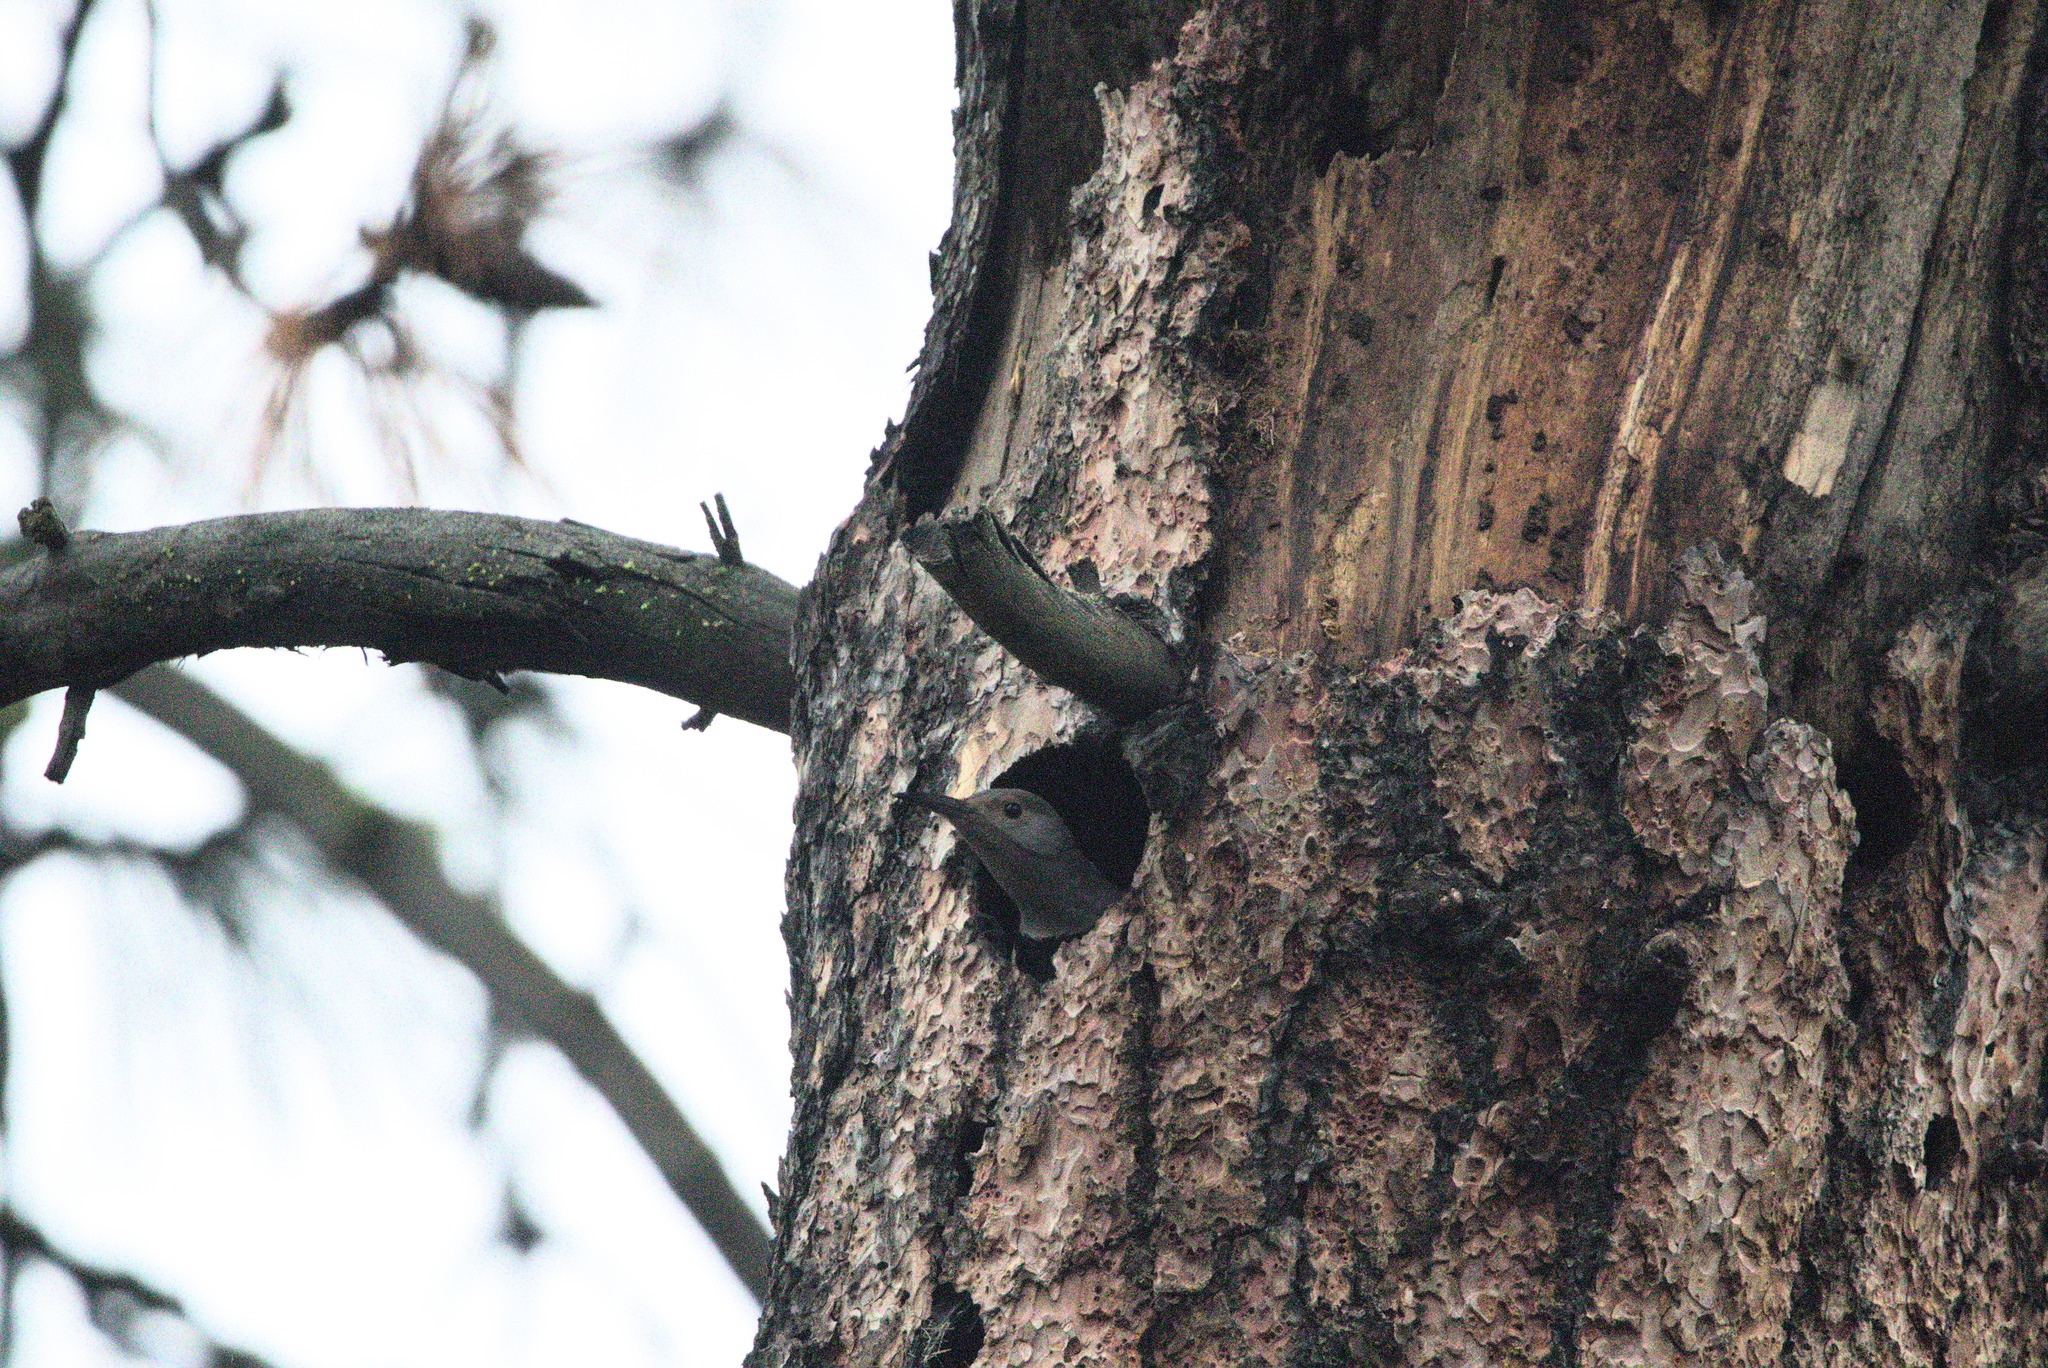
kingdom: Animalia
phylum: Chordata
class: Aves
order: Piciformes
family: Picidae
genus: Colaptes
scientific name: Colaptes auratus
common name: Northern flicker
